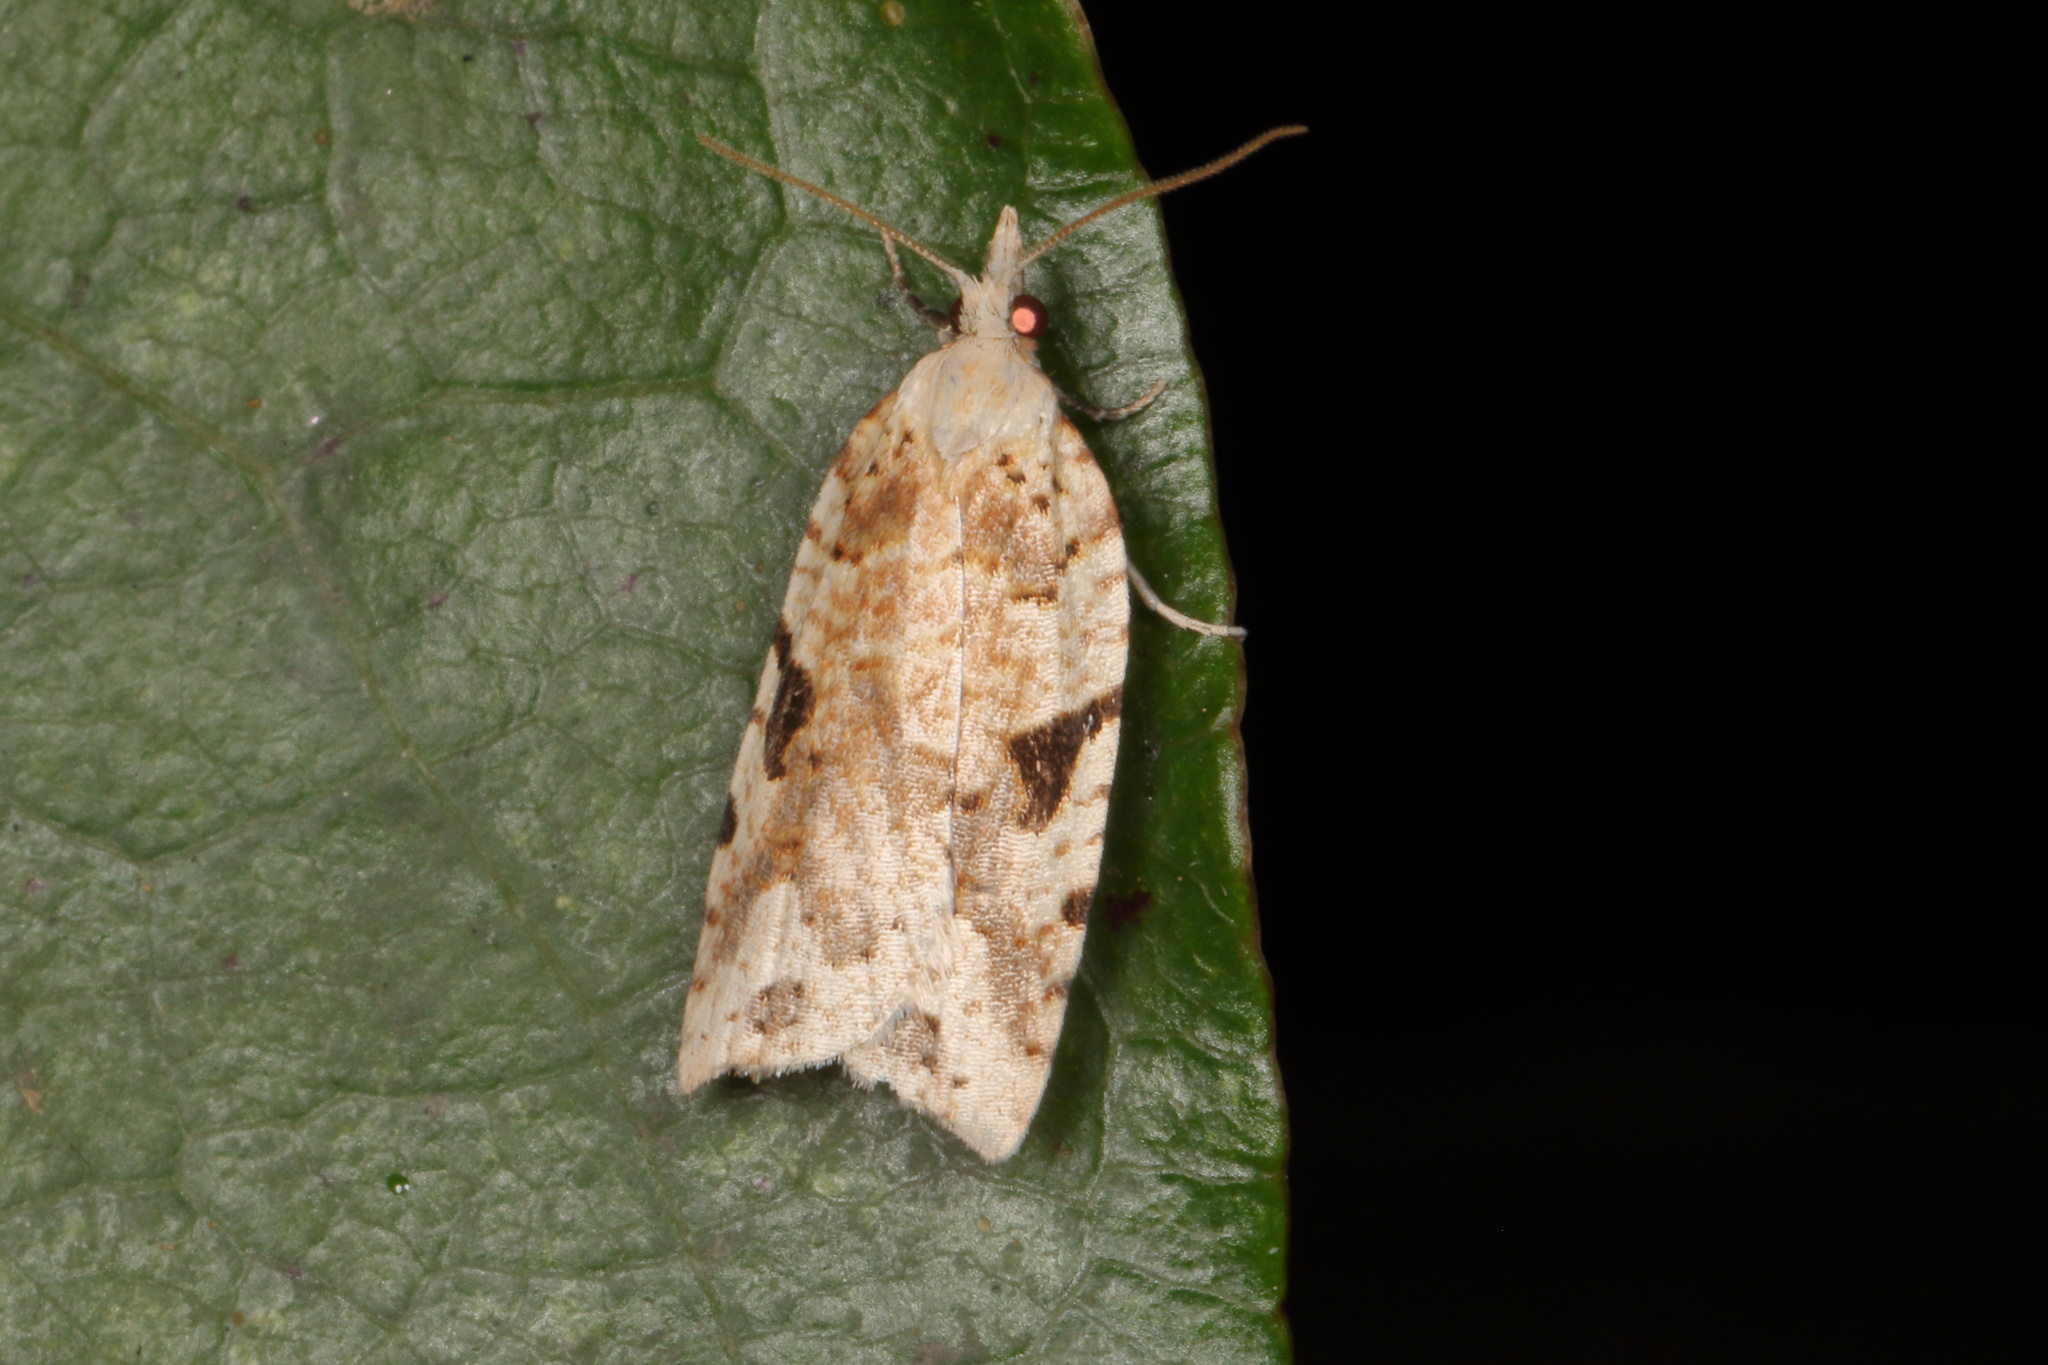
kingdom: Animalia
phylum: Arthropoda
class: Insecta
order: Lepidoptera
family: Tortricidae
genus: Leucotenes
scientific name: Leucotenes coprosmae
